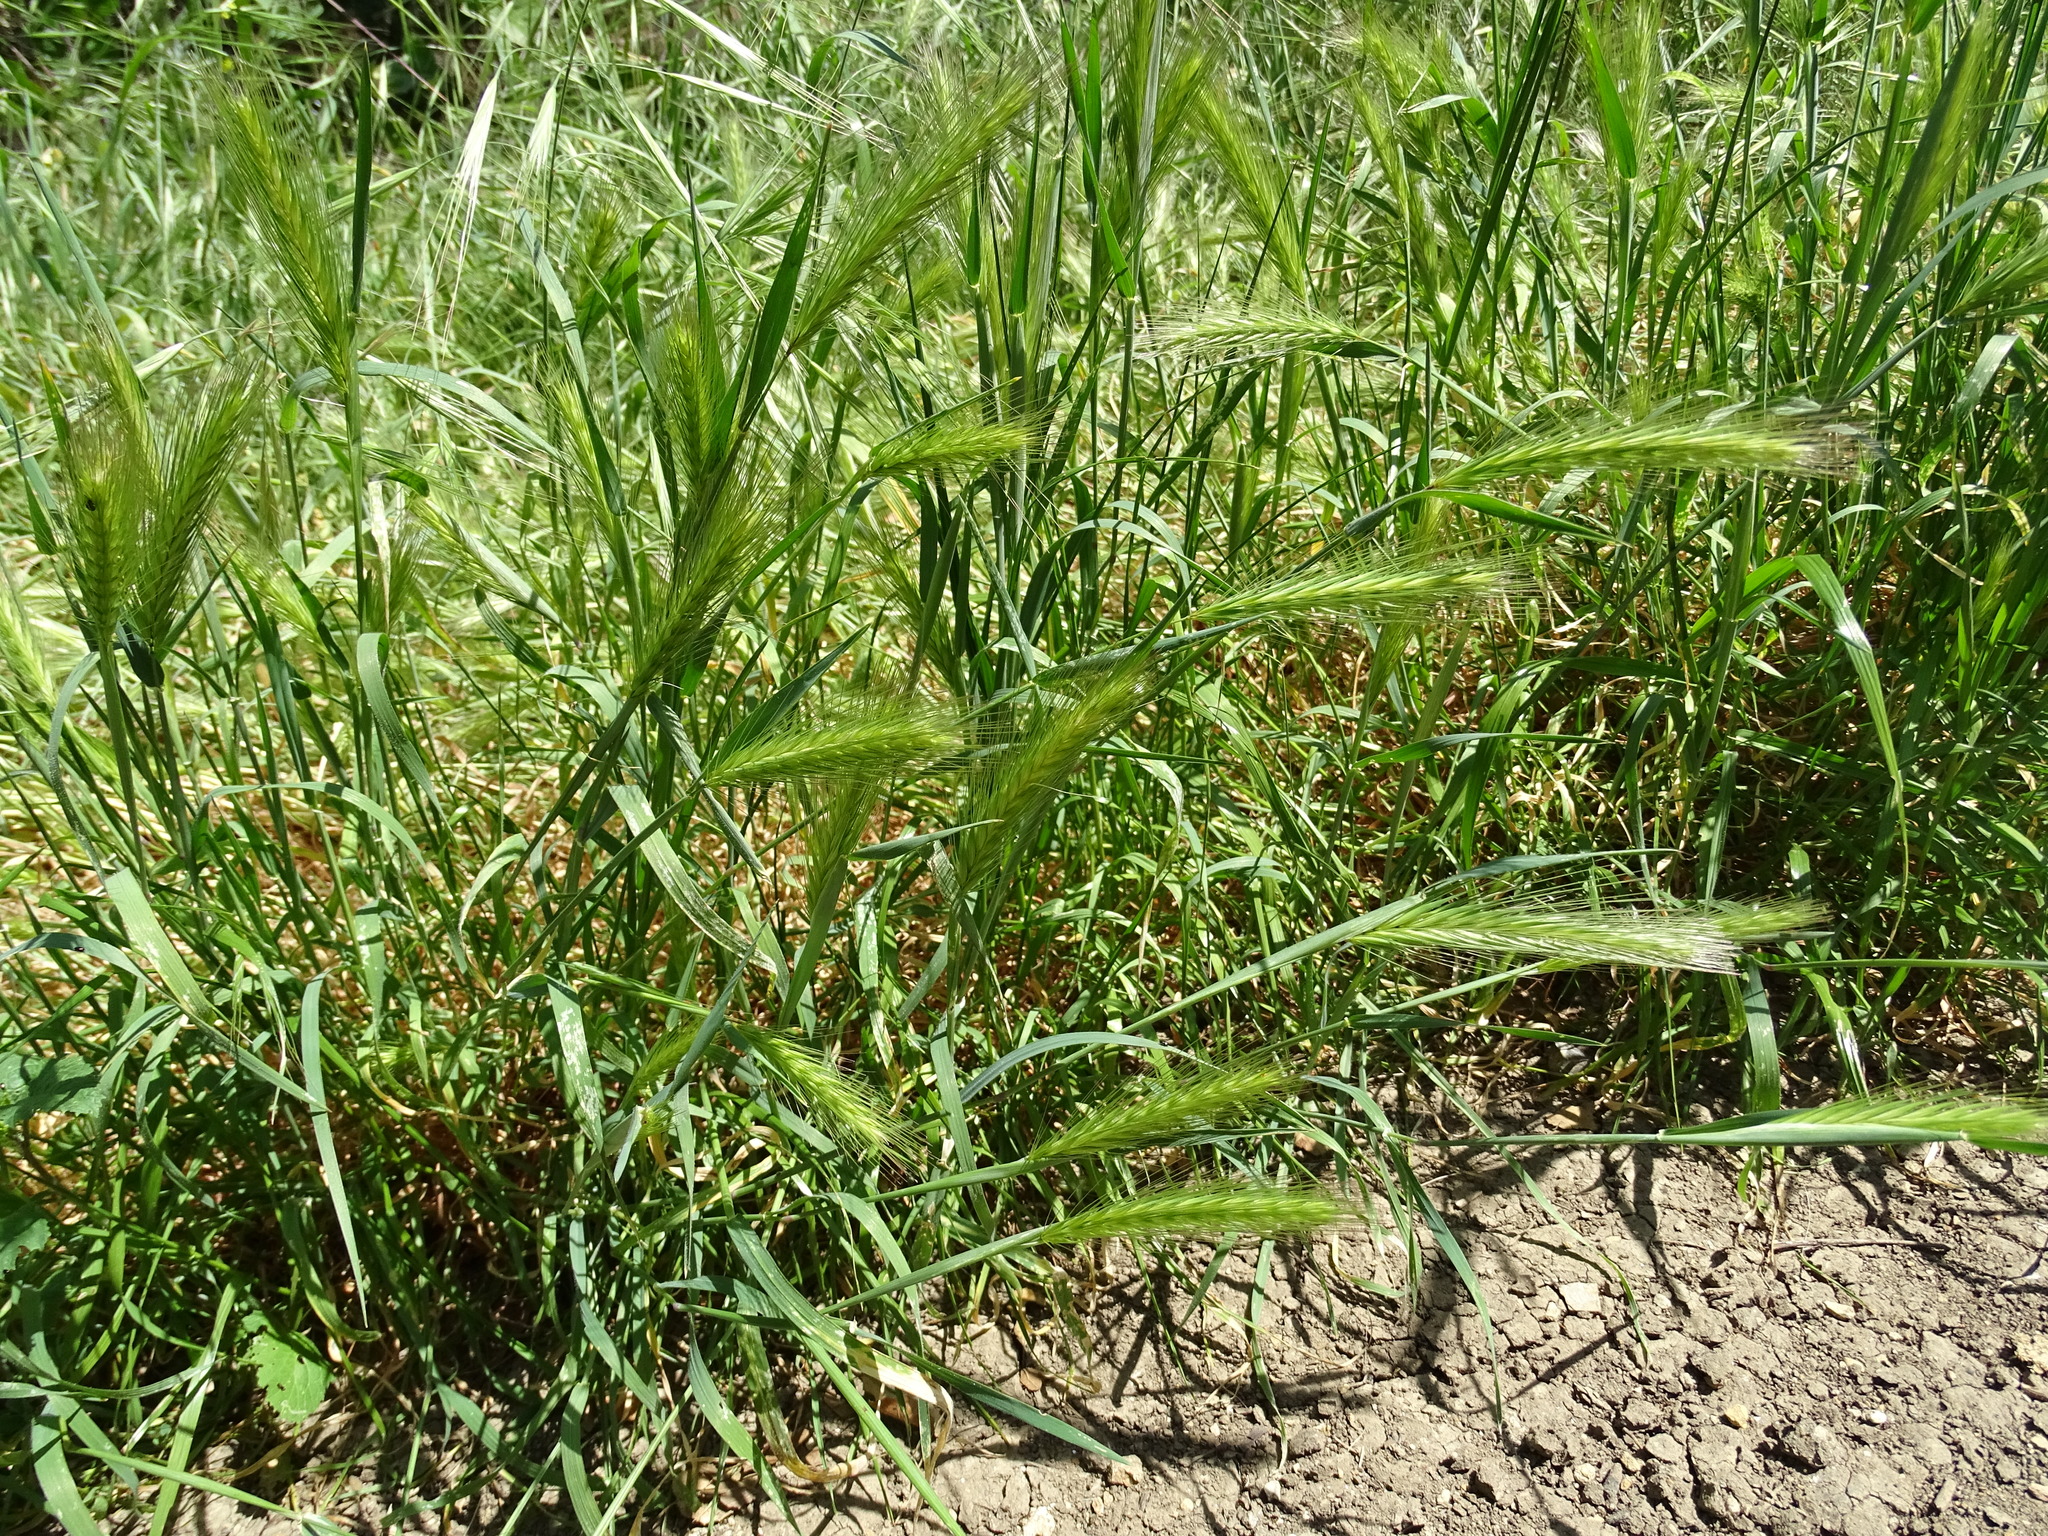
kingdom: Plantae
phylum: Tracheophyta
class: Liliopsida
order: Poales
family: Poaceae
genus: Hordeum
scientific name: Hordeum murinum
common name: Wall barley
